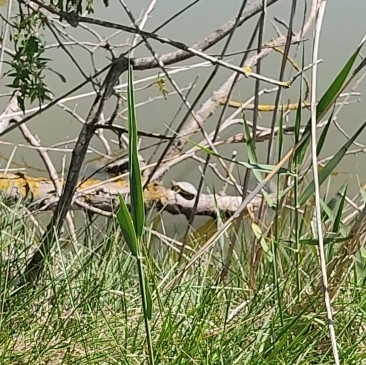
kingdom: Animalia
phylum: Chordata
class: Testudines
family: Emydidae
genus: Trachemys
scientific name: Trachemys scripta
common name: Slider
